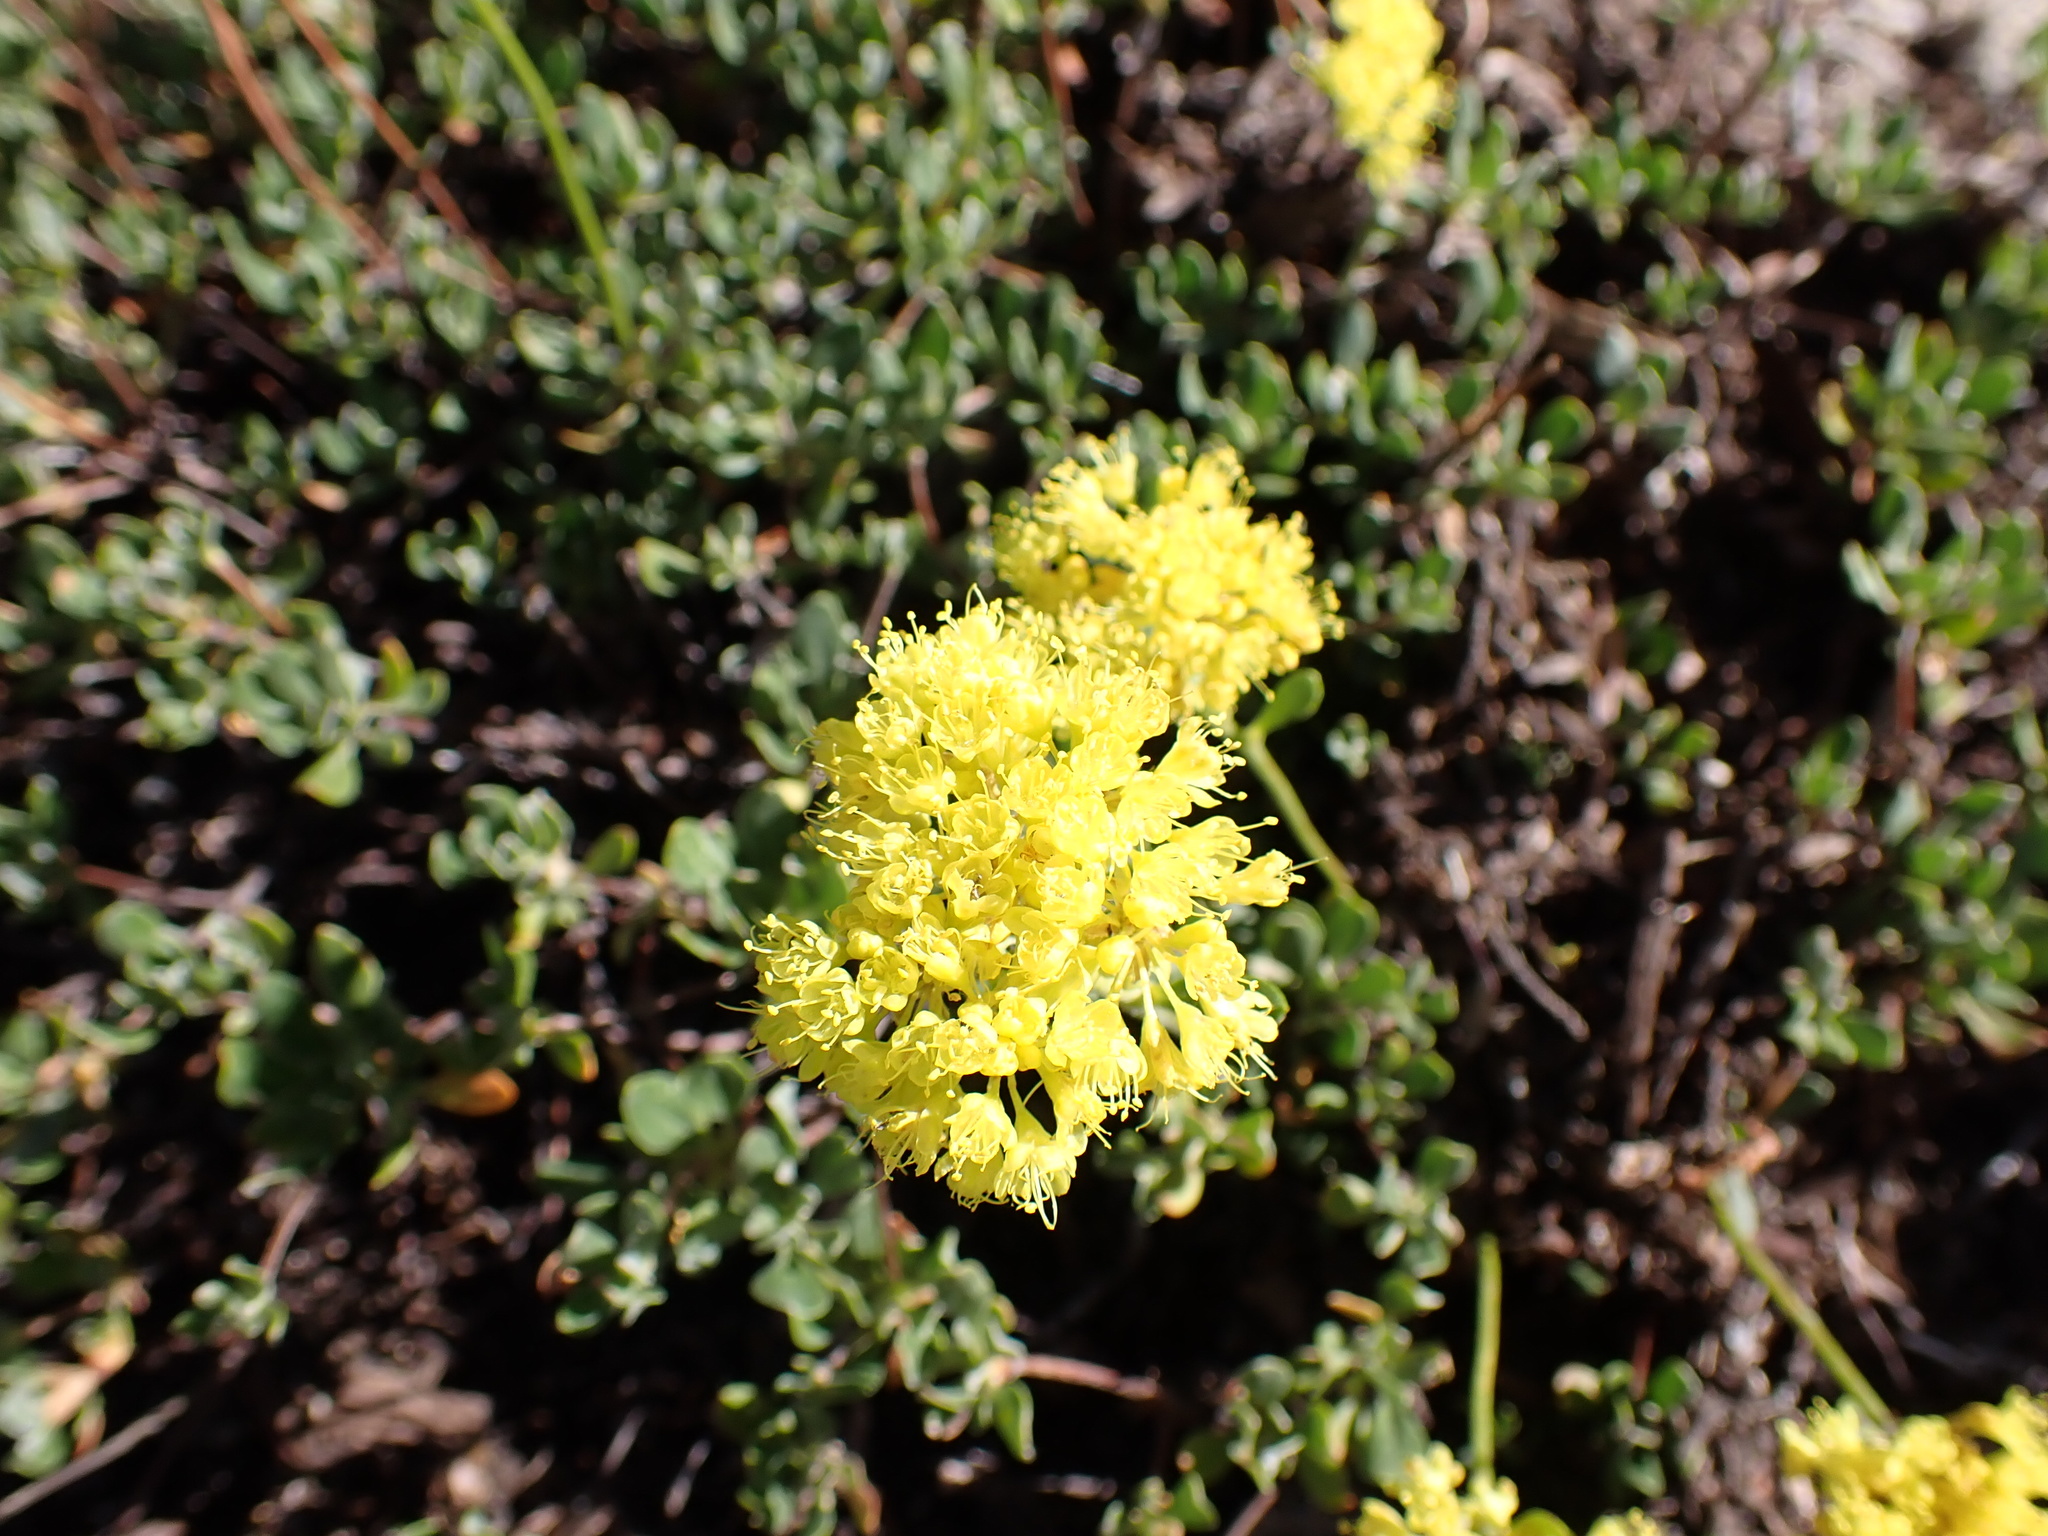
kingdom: Plantae
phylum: Tracheophyta
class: Magnoliopsida
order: Caryophyllales
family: Polygonaceae
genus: Eriogonum
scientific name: Eriogonum umbellatum
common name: Sulfur-buckwheat
